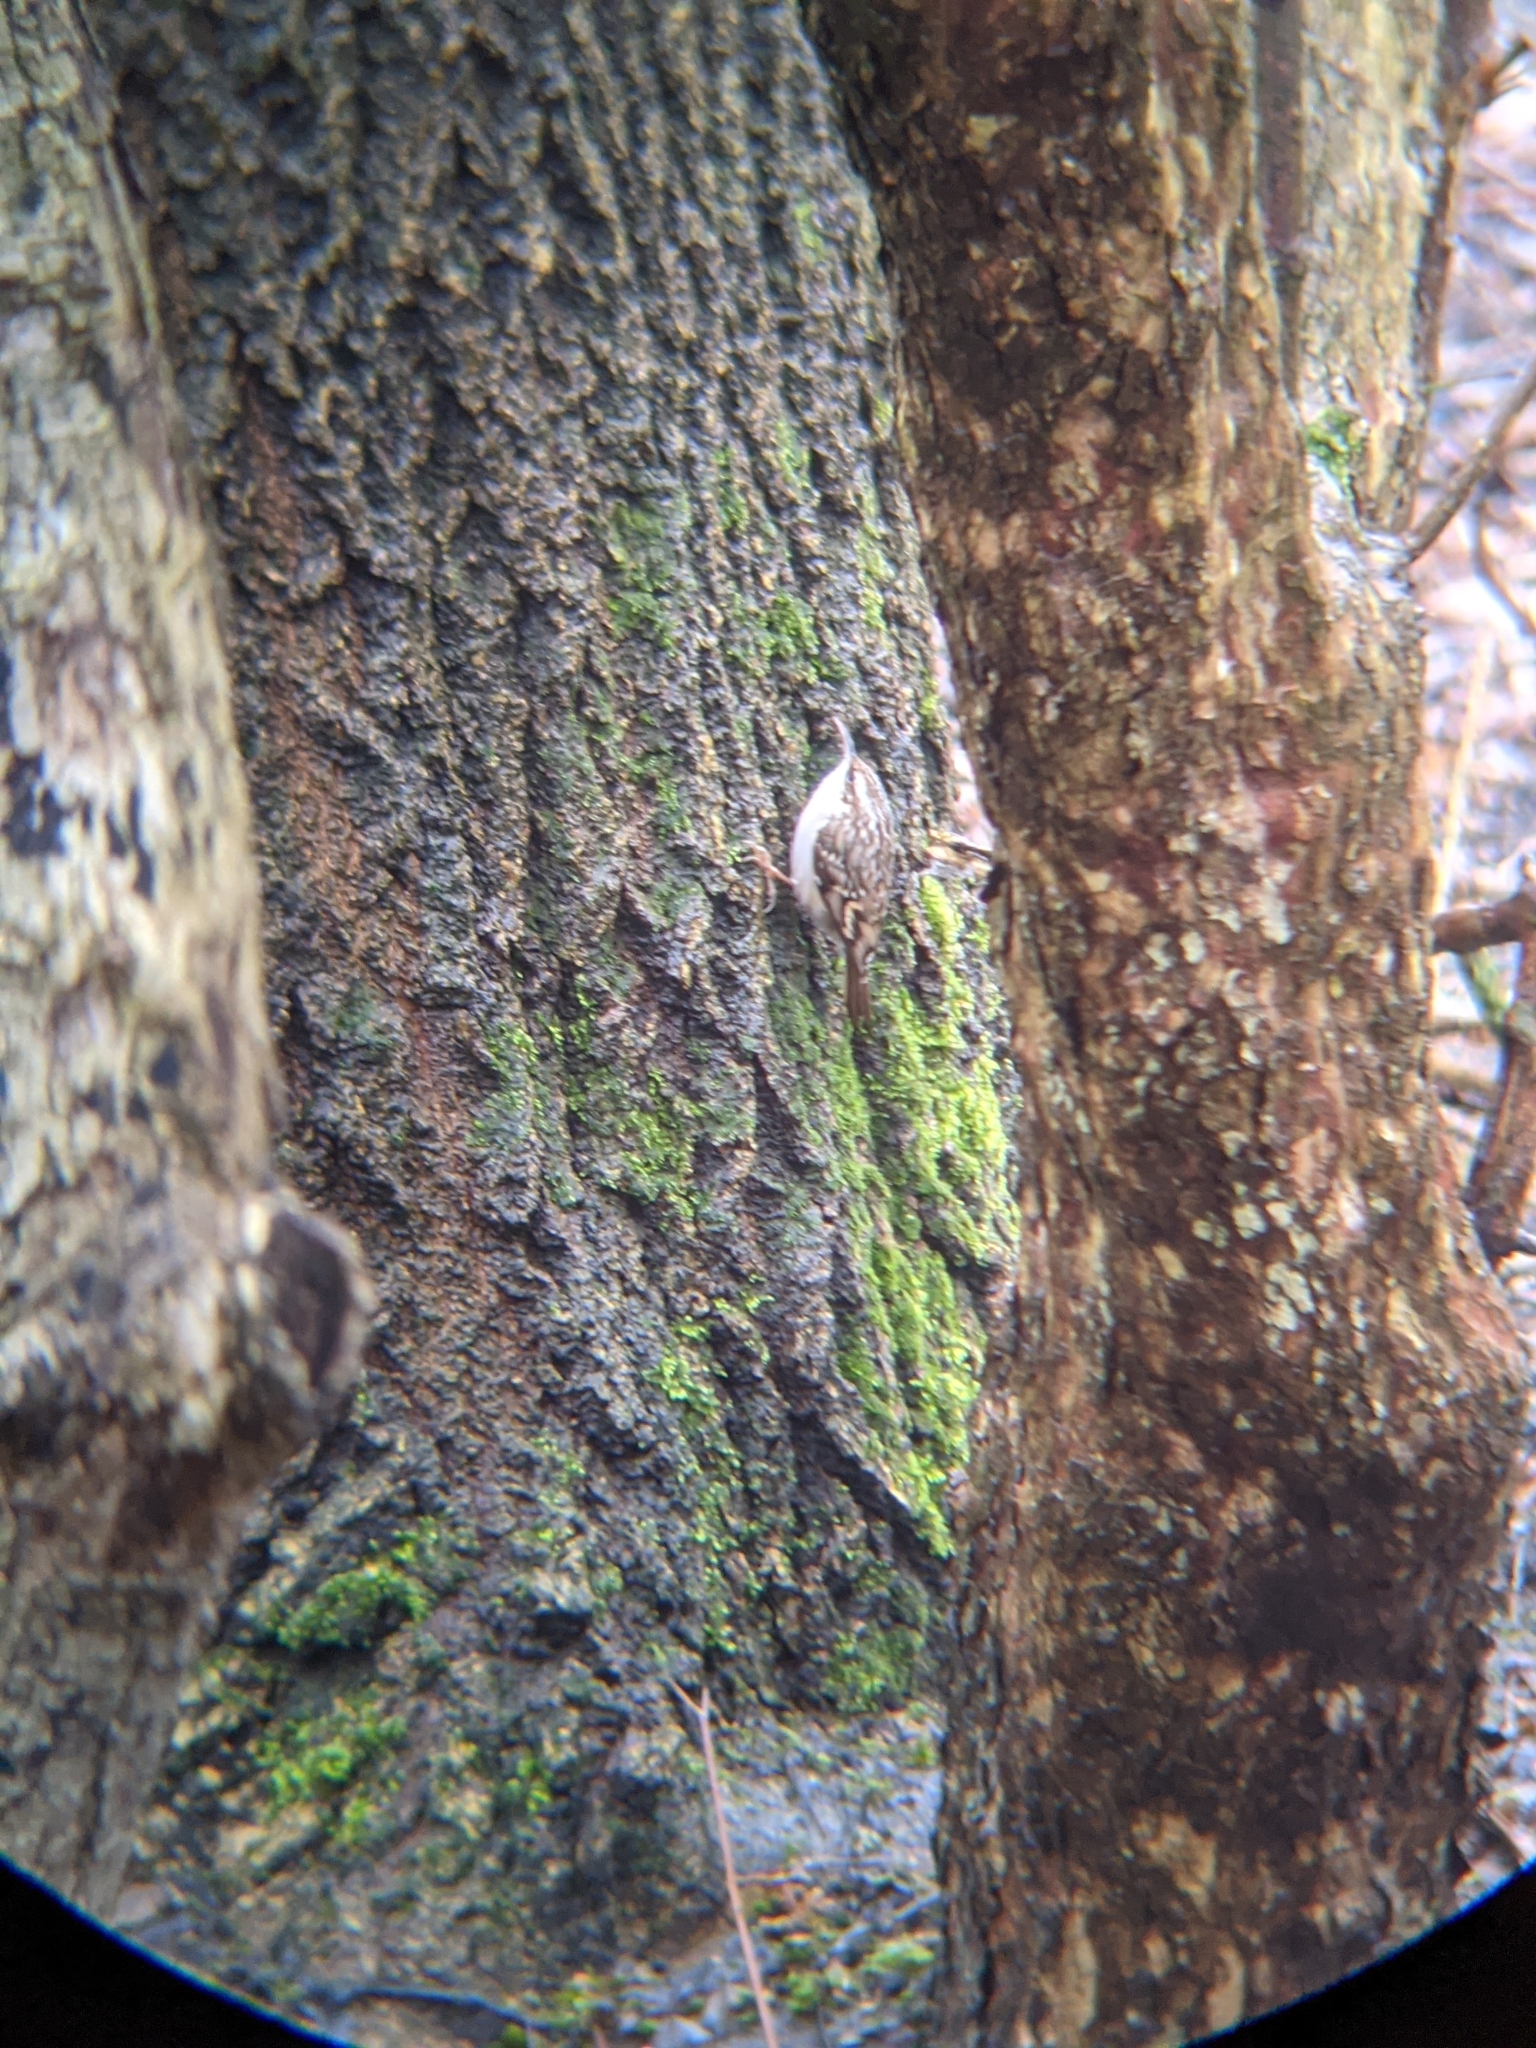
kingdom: Animalia
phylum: Chordata
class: Aves
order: Passeriformes
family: Certhiidae
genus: Certhia
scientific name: Certhia familiaris
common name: Eurasian treecreeper
